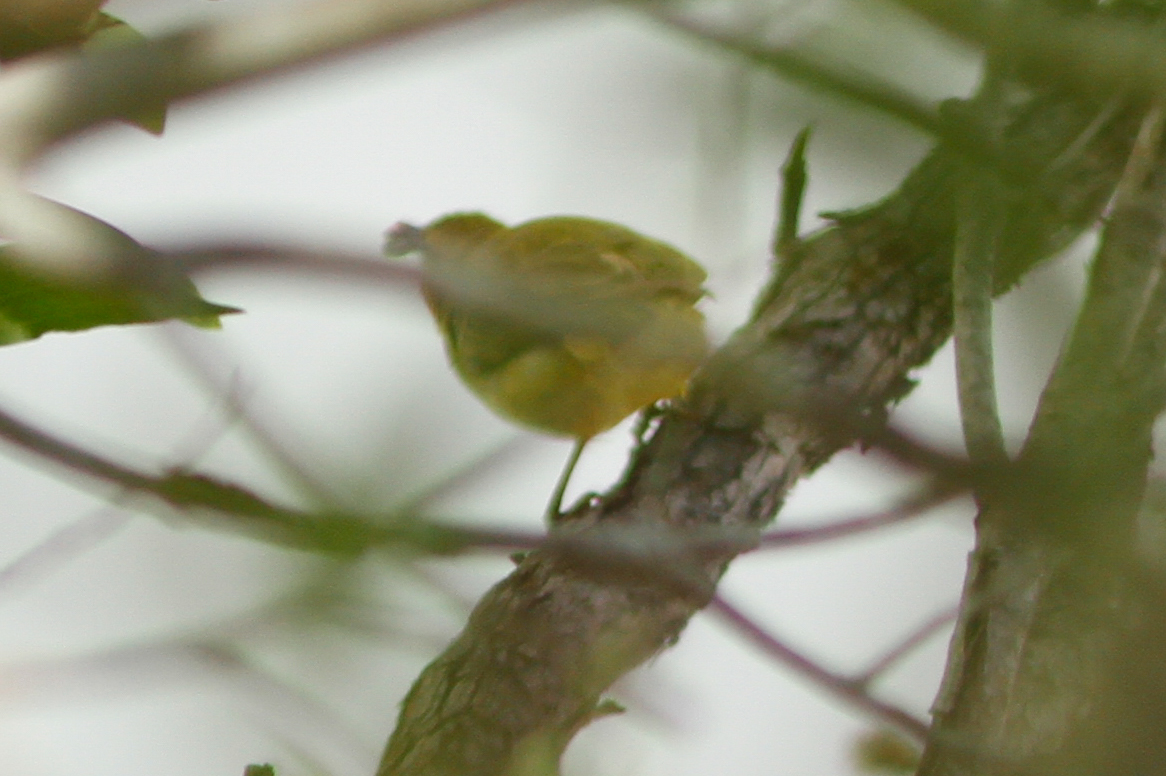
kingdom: Animalia
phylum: Chordata
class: Aves
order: Passeriformes
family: Meliphagidae
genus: Stomiopera
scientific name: Stomiopera flava
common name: Yellow honeyeater
